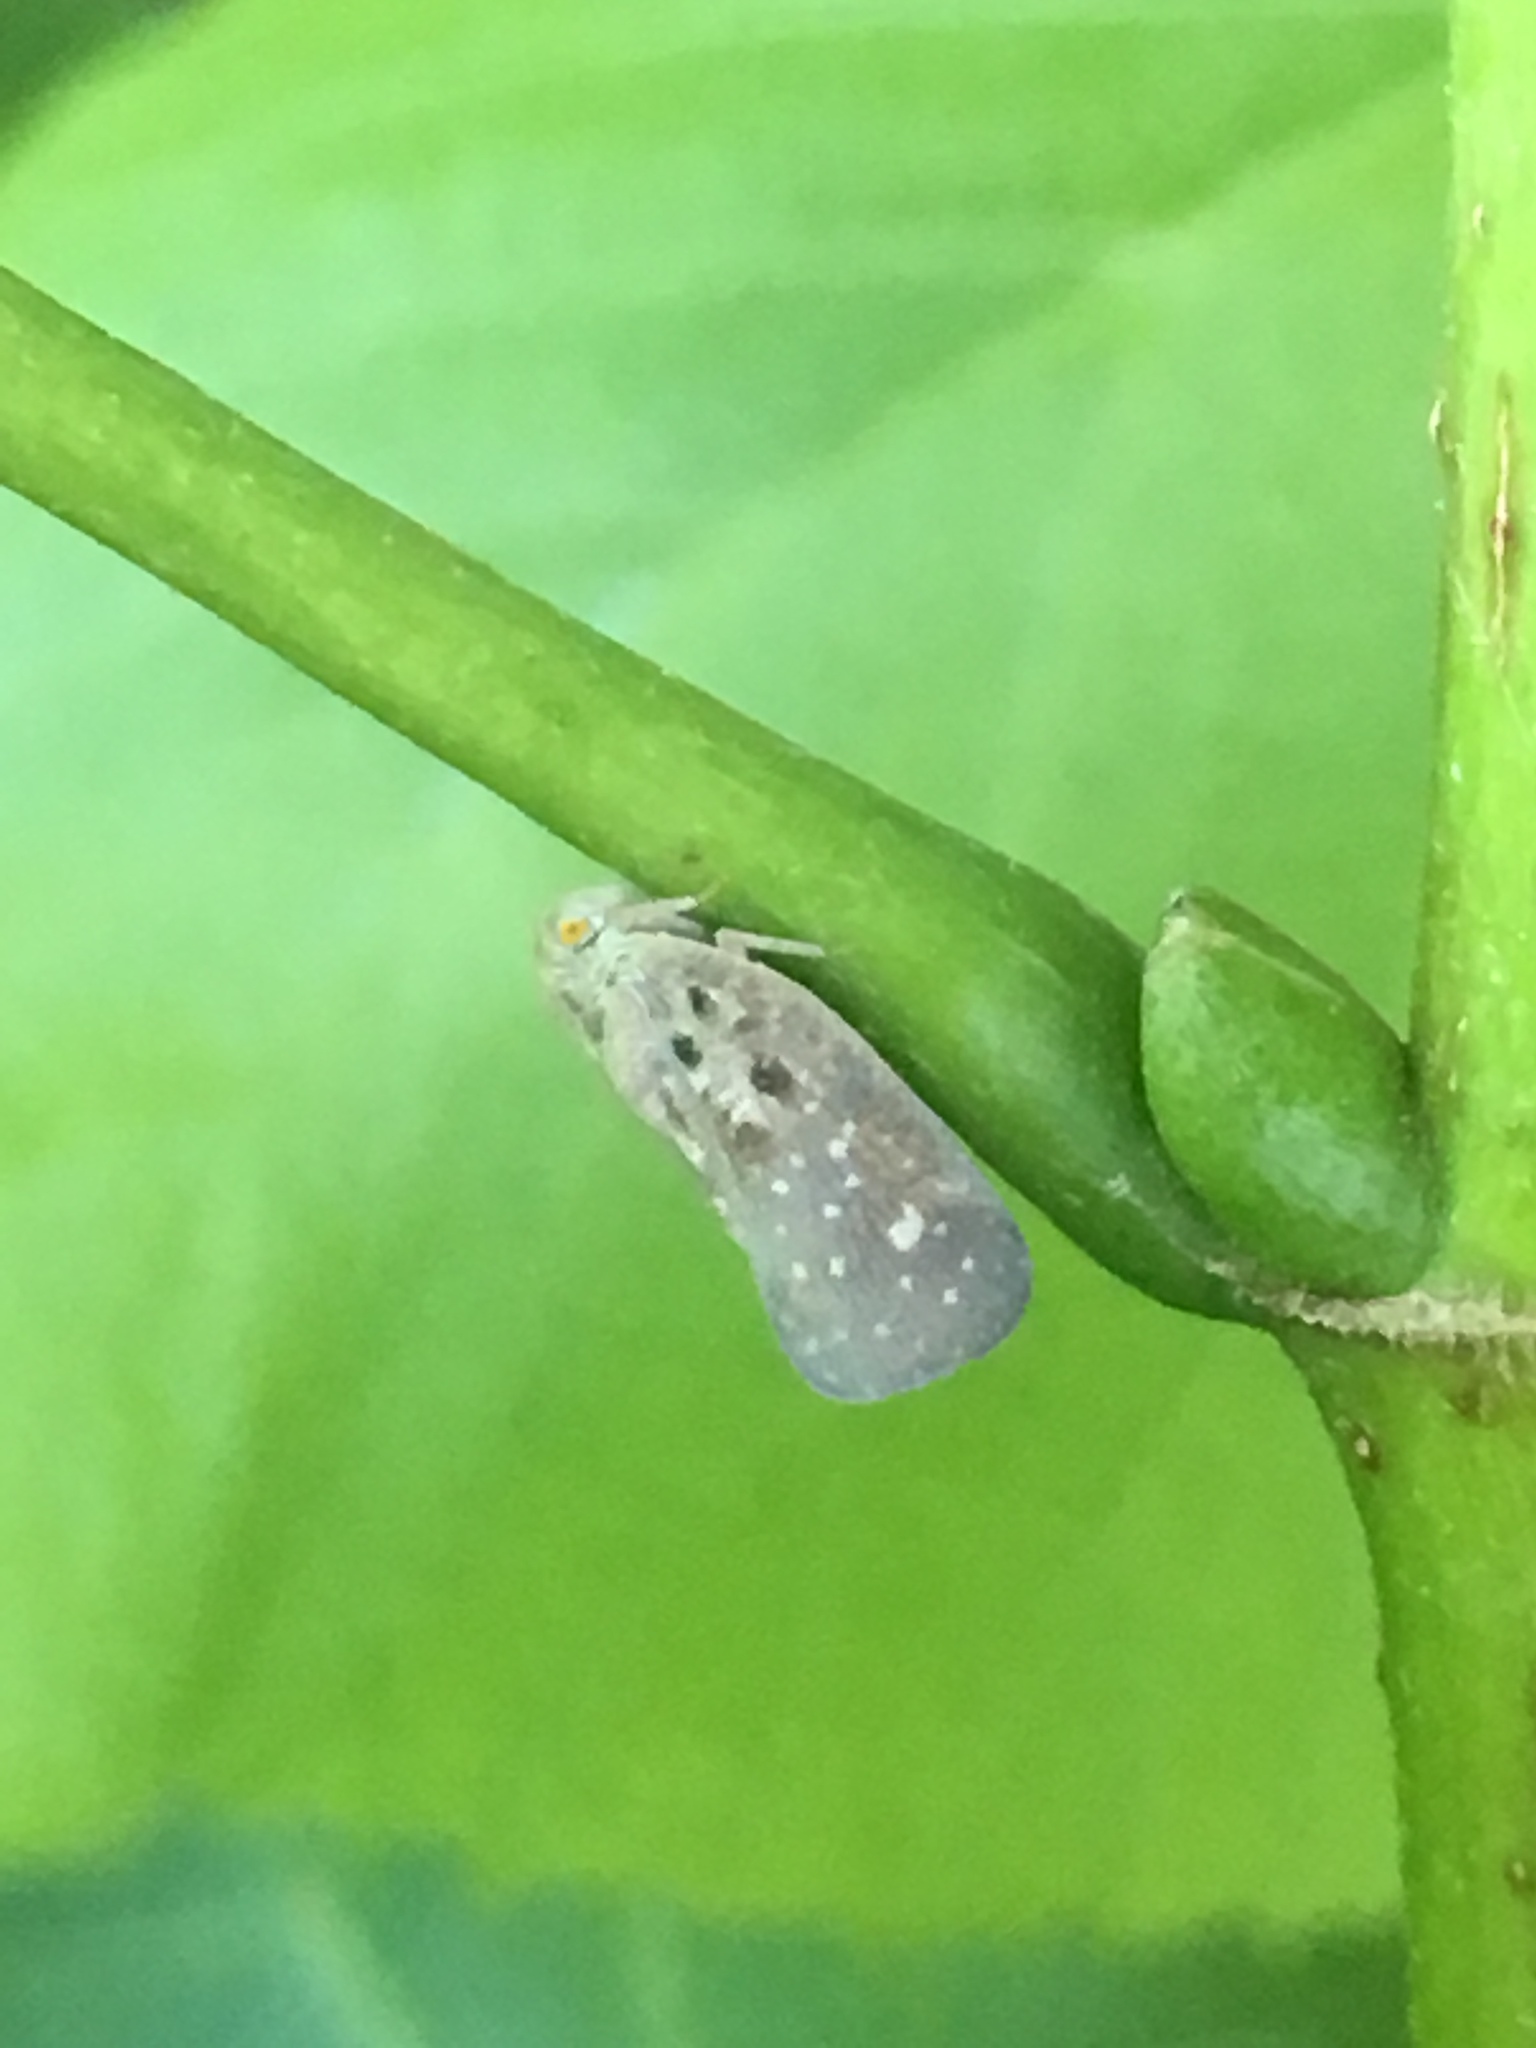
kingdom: Animalia
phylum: Arthropoda
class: Insecta
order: Hemiptera
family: Flatidae
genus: Metcalfa
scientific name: Metcalfa pruinosa
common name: Citrus flatid planthopper
